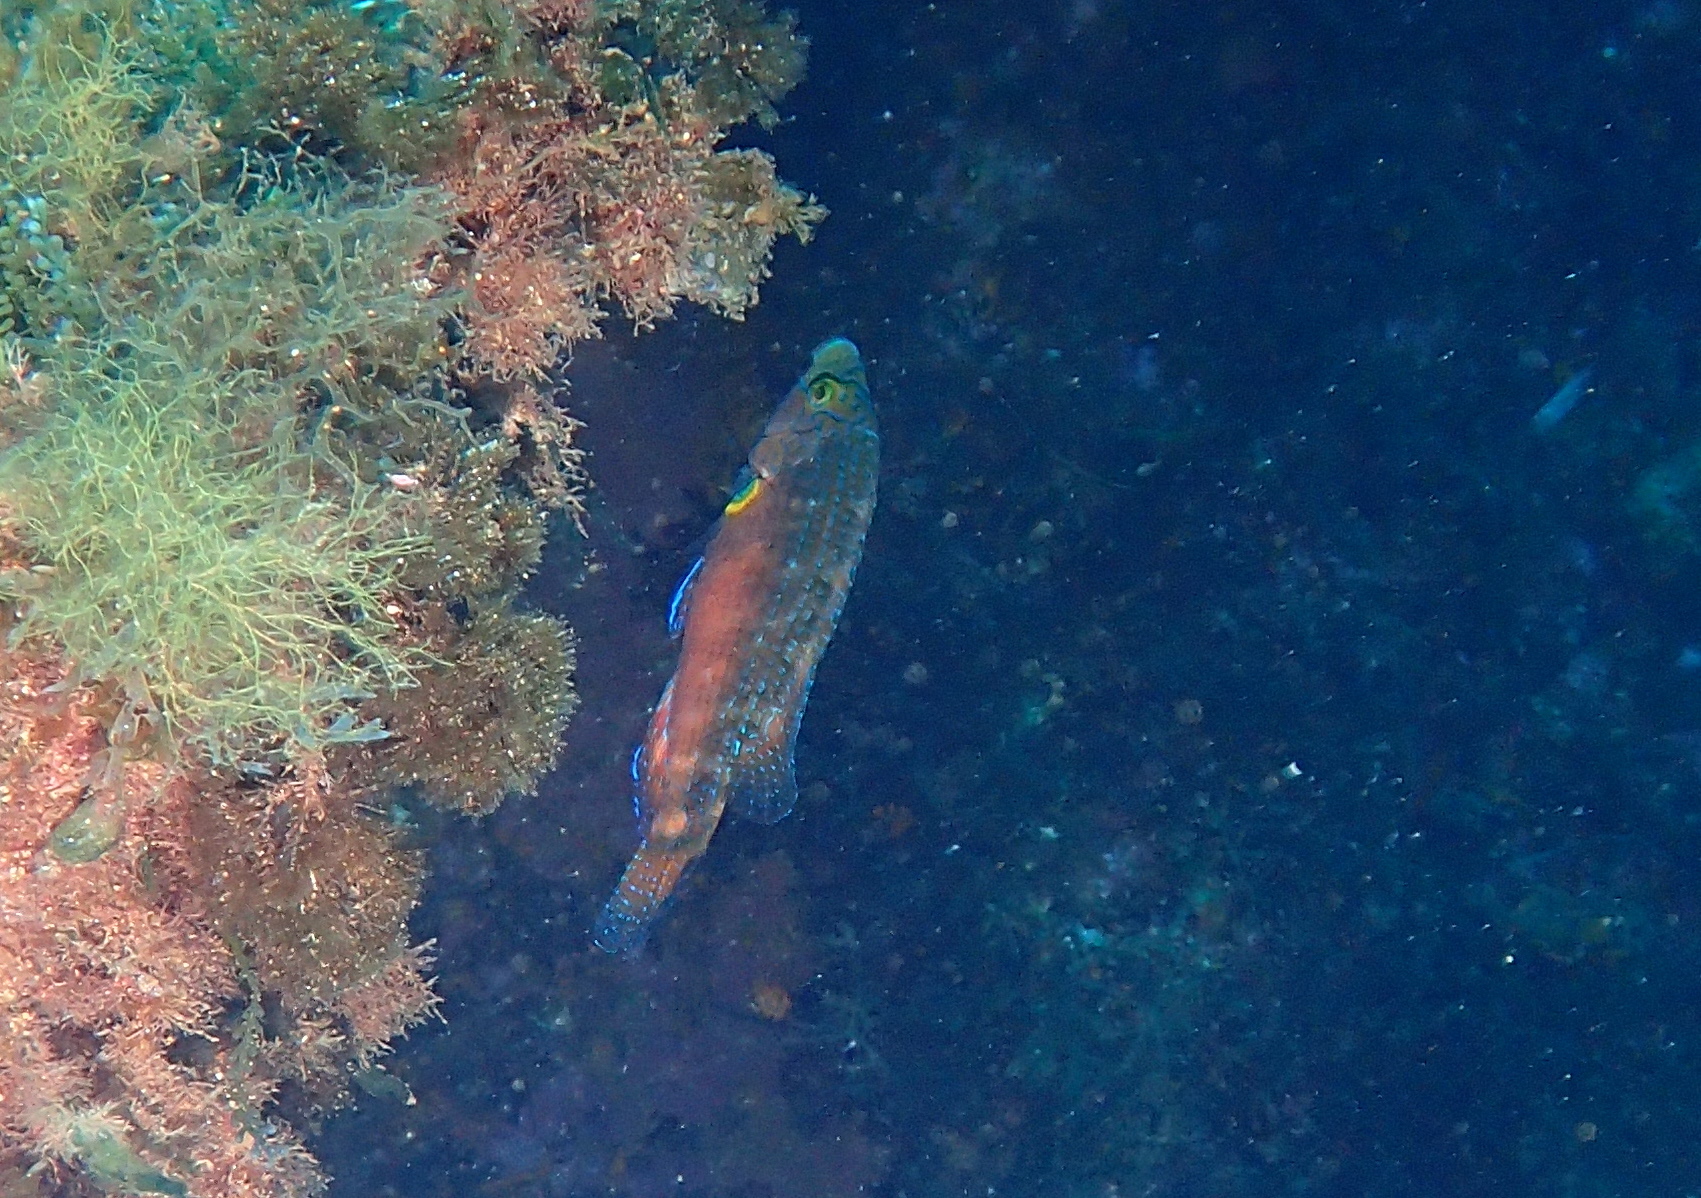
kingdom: Animalia
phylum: Chordata
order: Perciformes
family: Labridae
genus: Symphodus
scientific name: Symphodus mediterraneus
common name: Axillary wrasse
